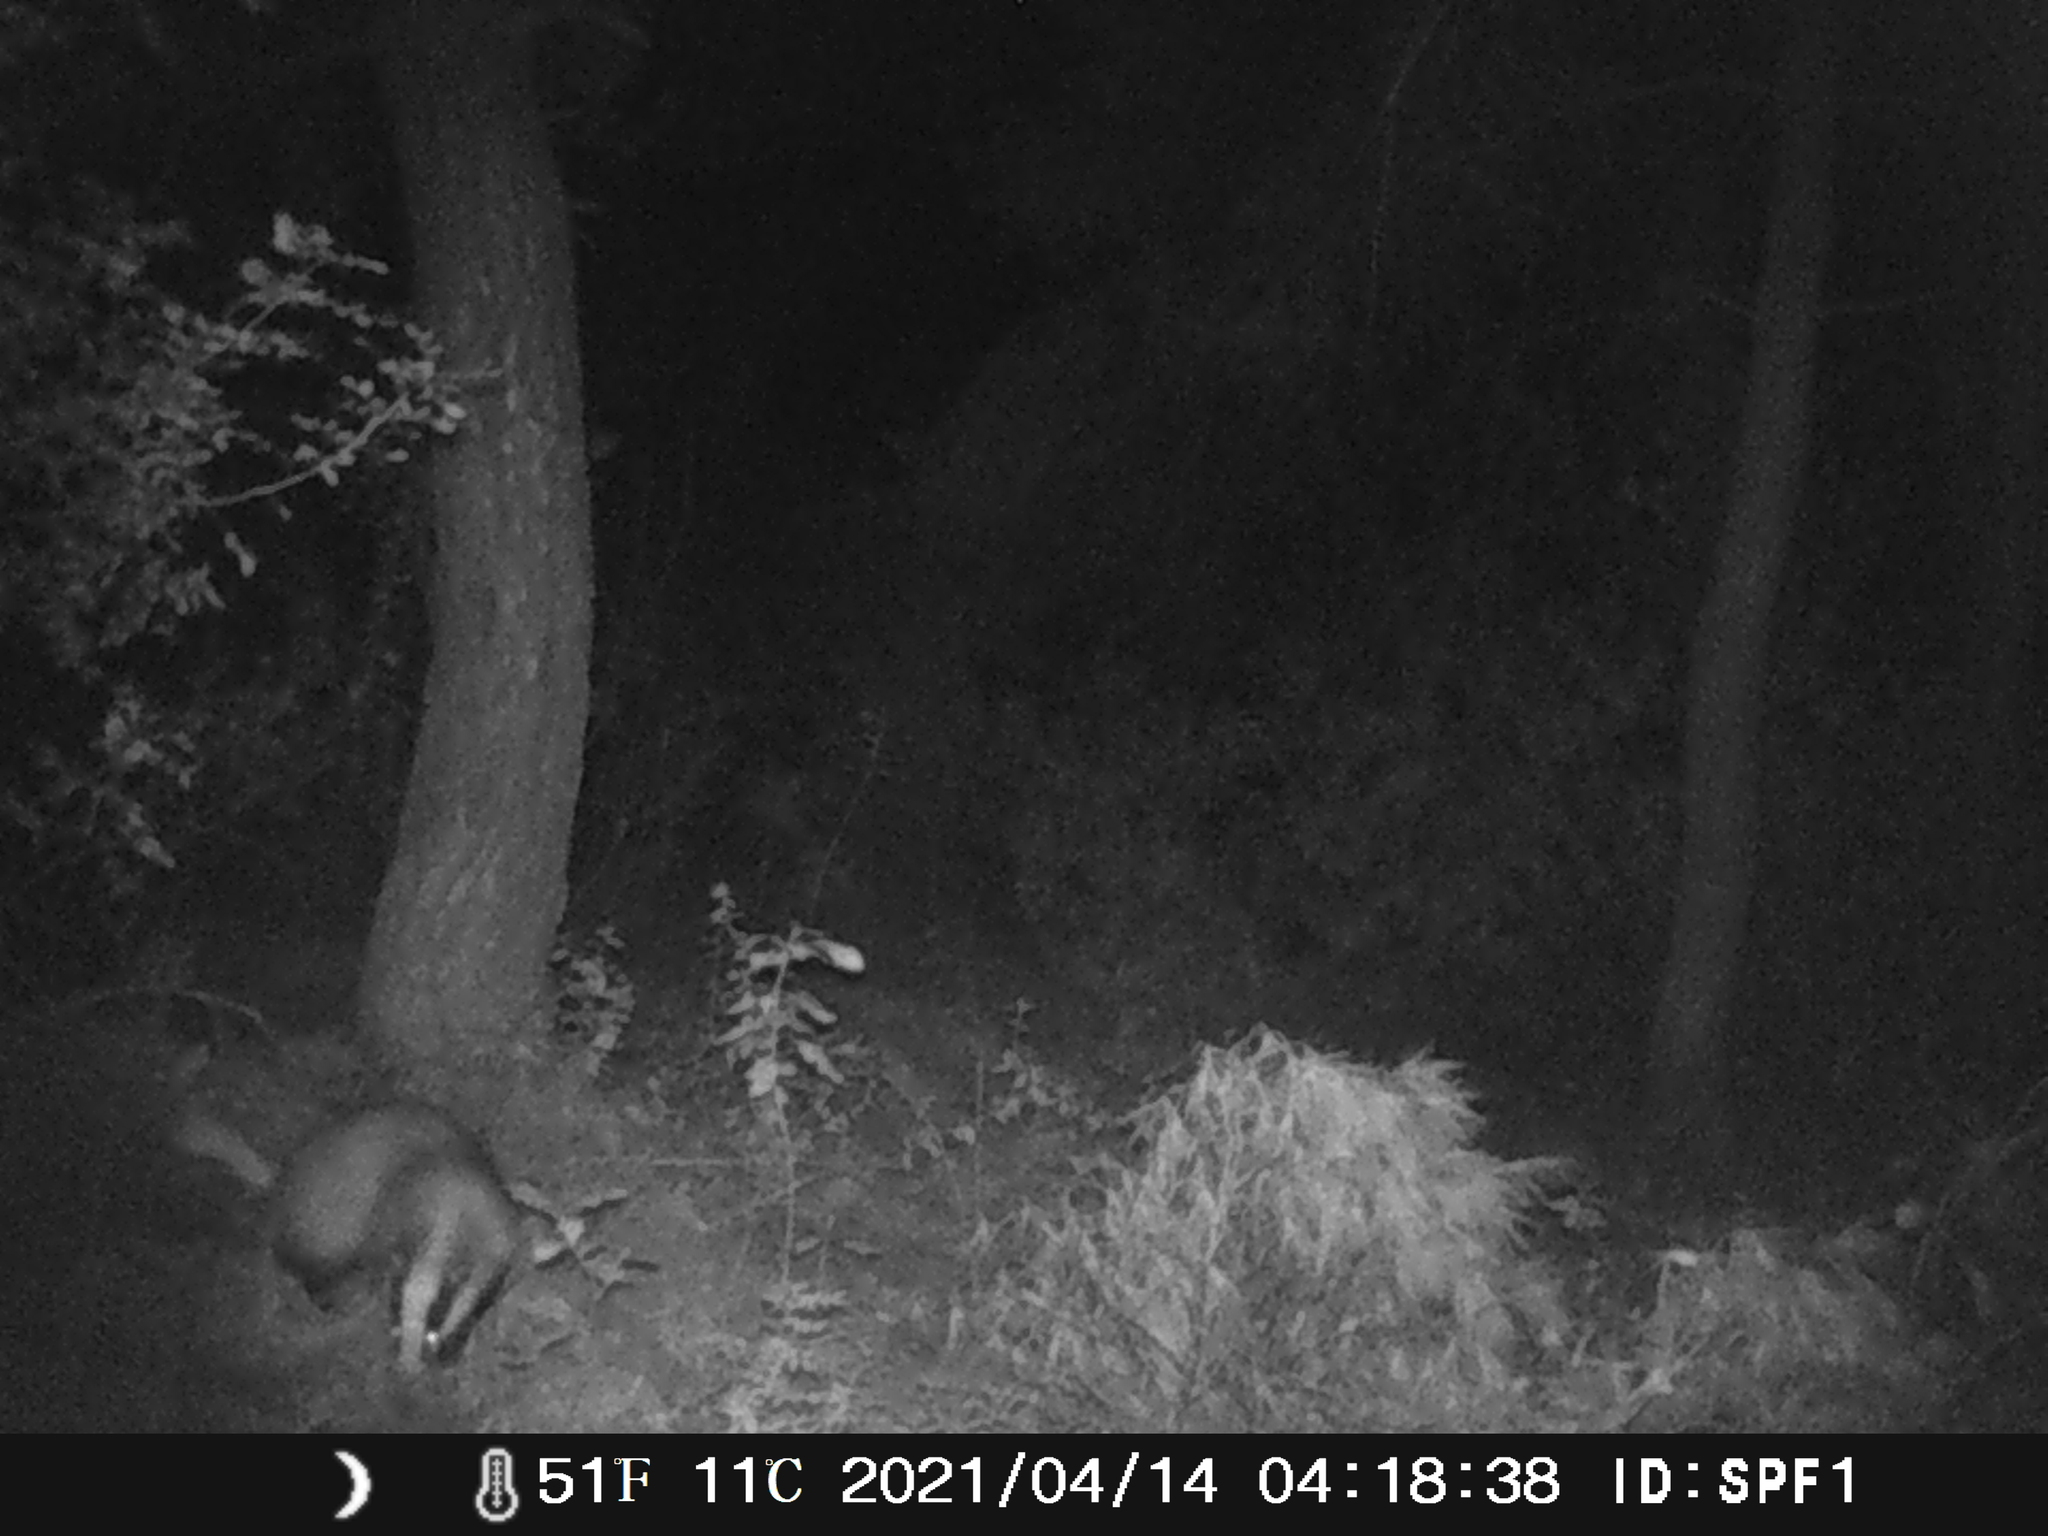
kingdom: Animalia
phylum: Chordata
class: Mammalia
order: Carnivora
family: Mustelidae
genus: Meles
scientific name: Meles meles
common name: Eurasian badger
